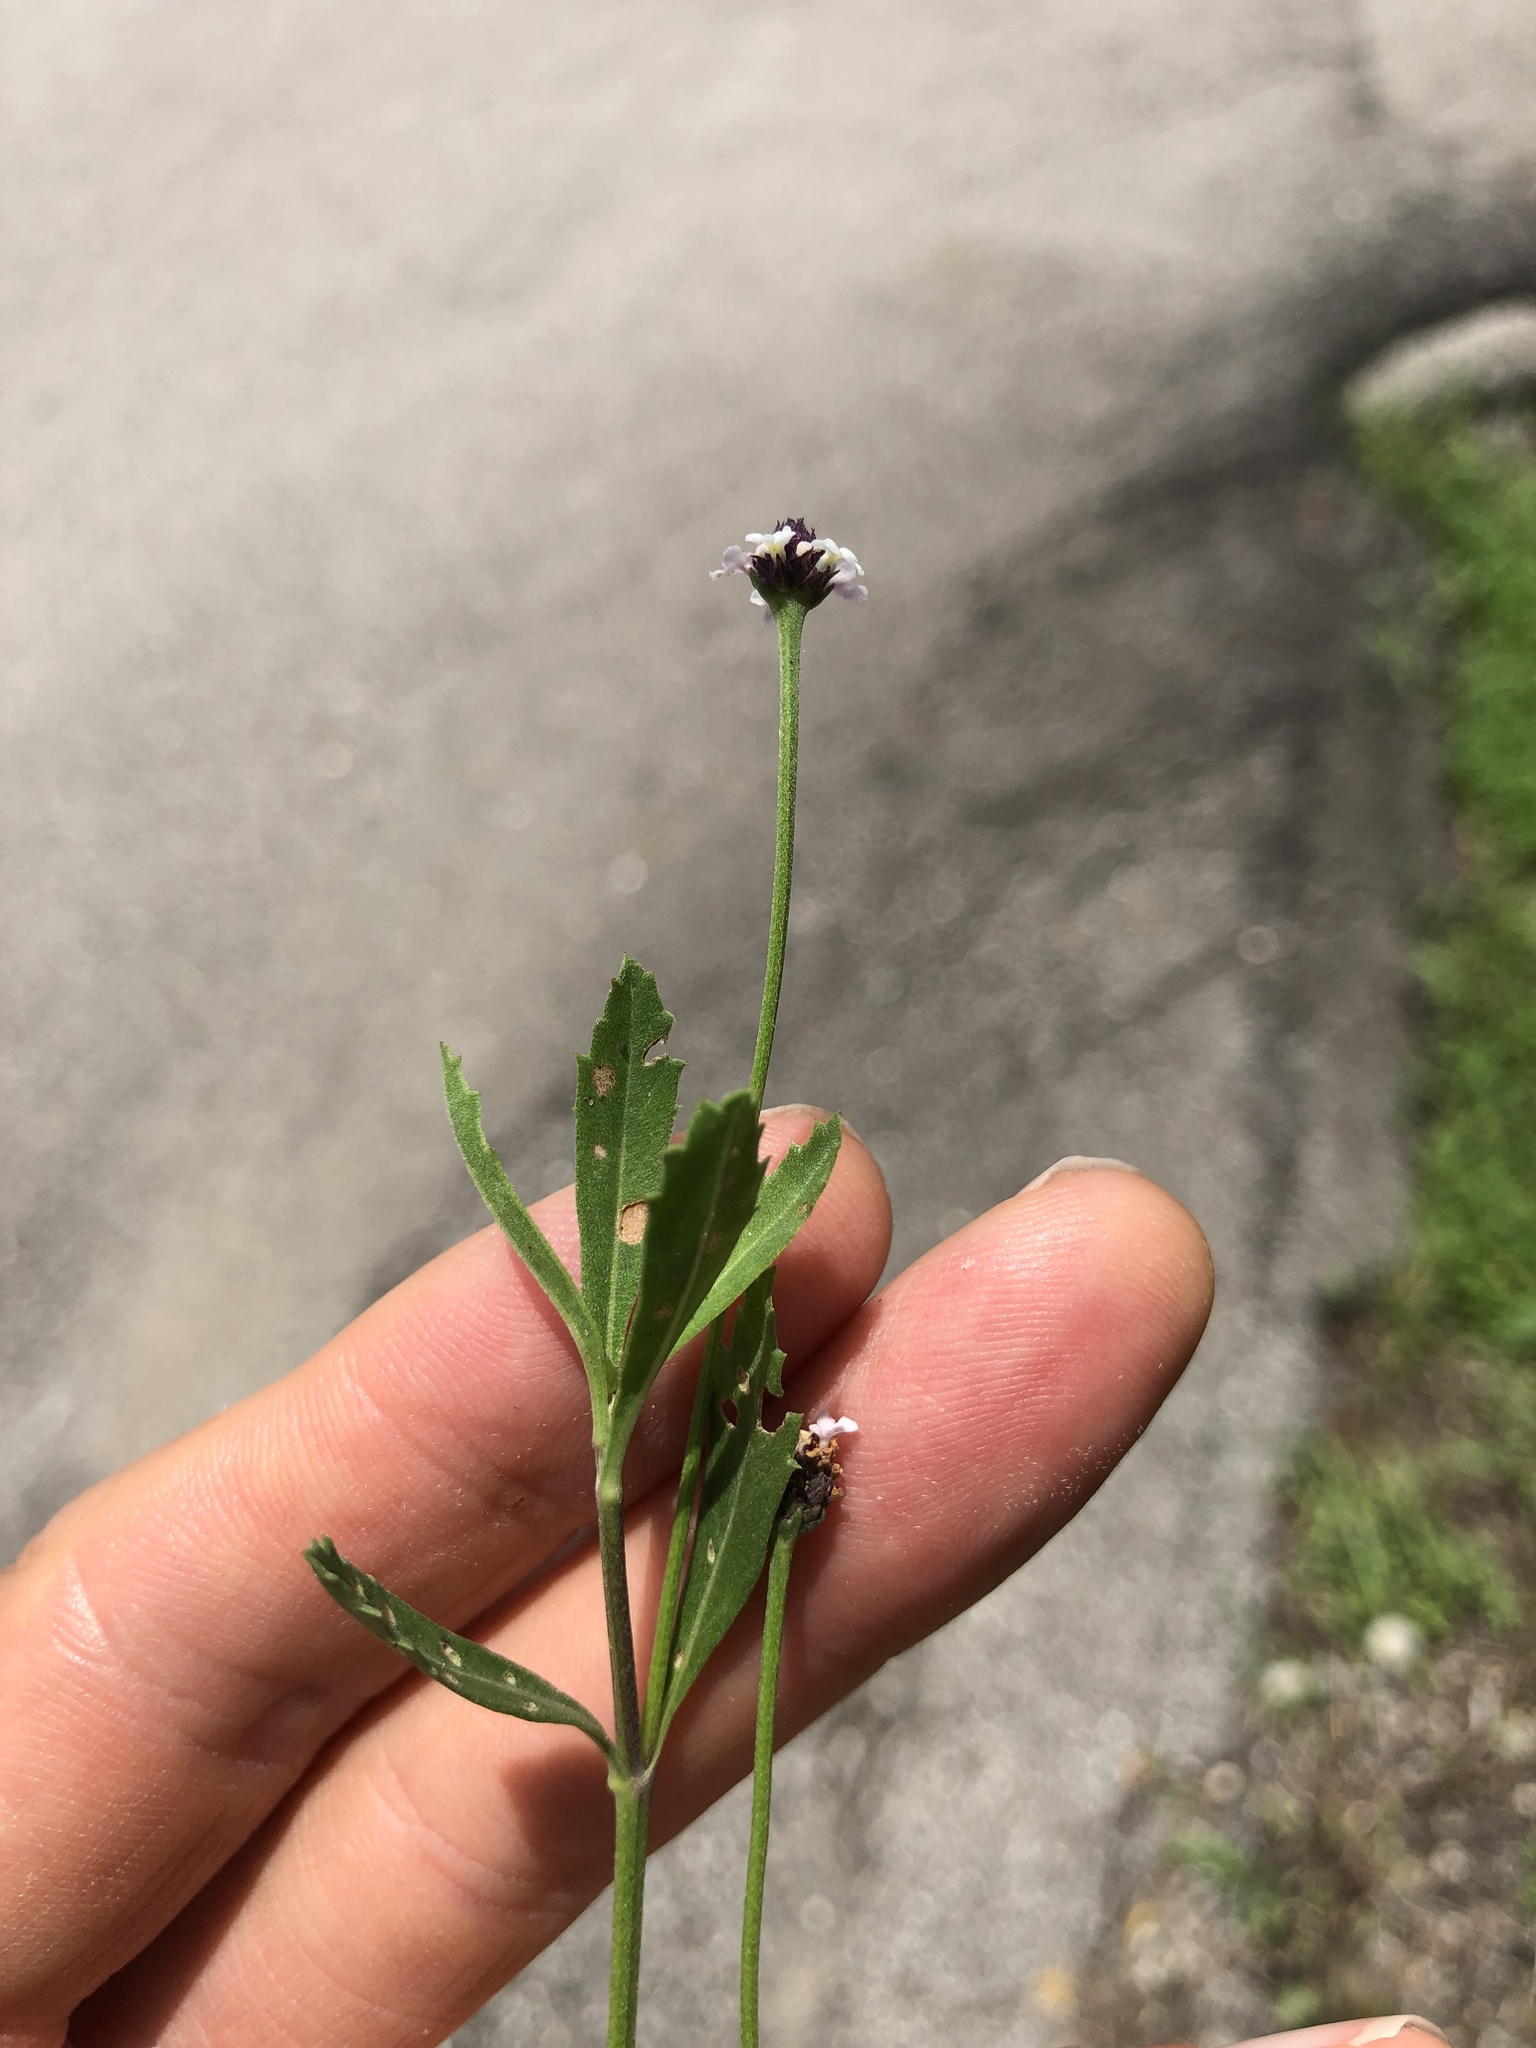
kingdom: Plantae
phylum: Tracheophyta
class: Magnoliopsida
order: Lamiales
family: Verbenaceae
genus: Phyla
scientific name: Phyla nodiflora
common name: Frogfruit
